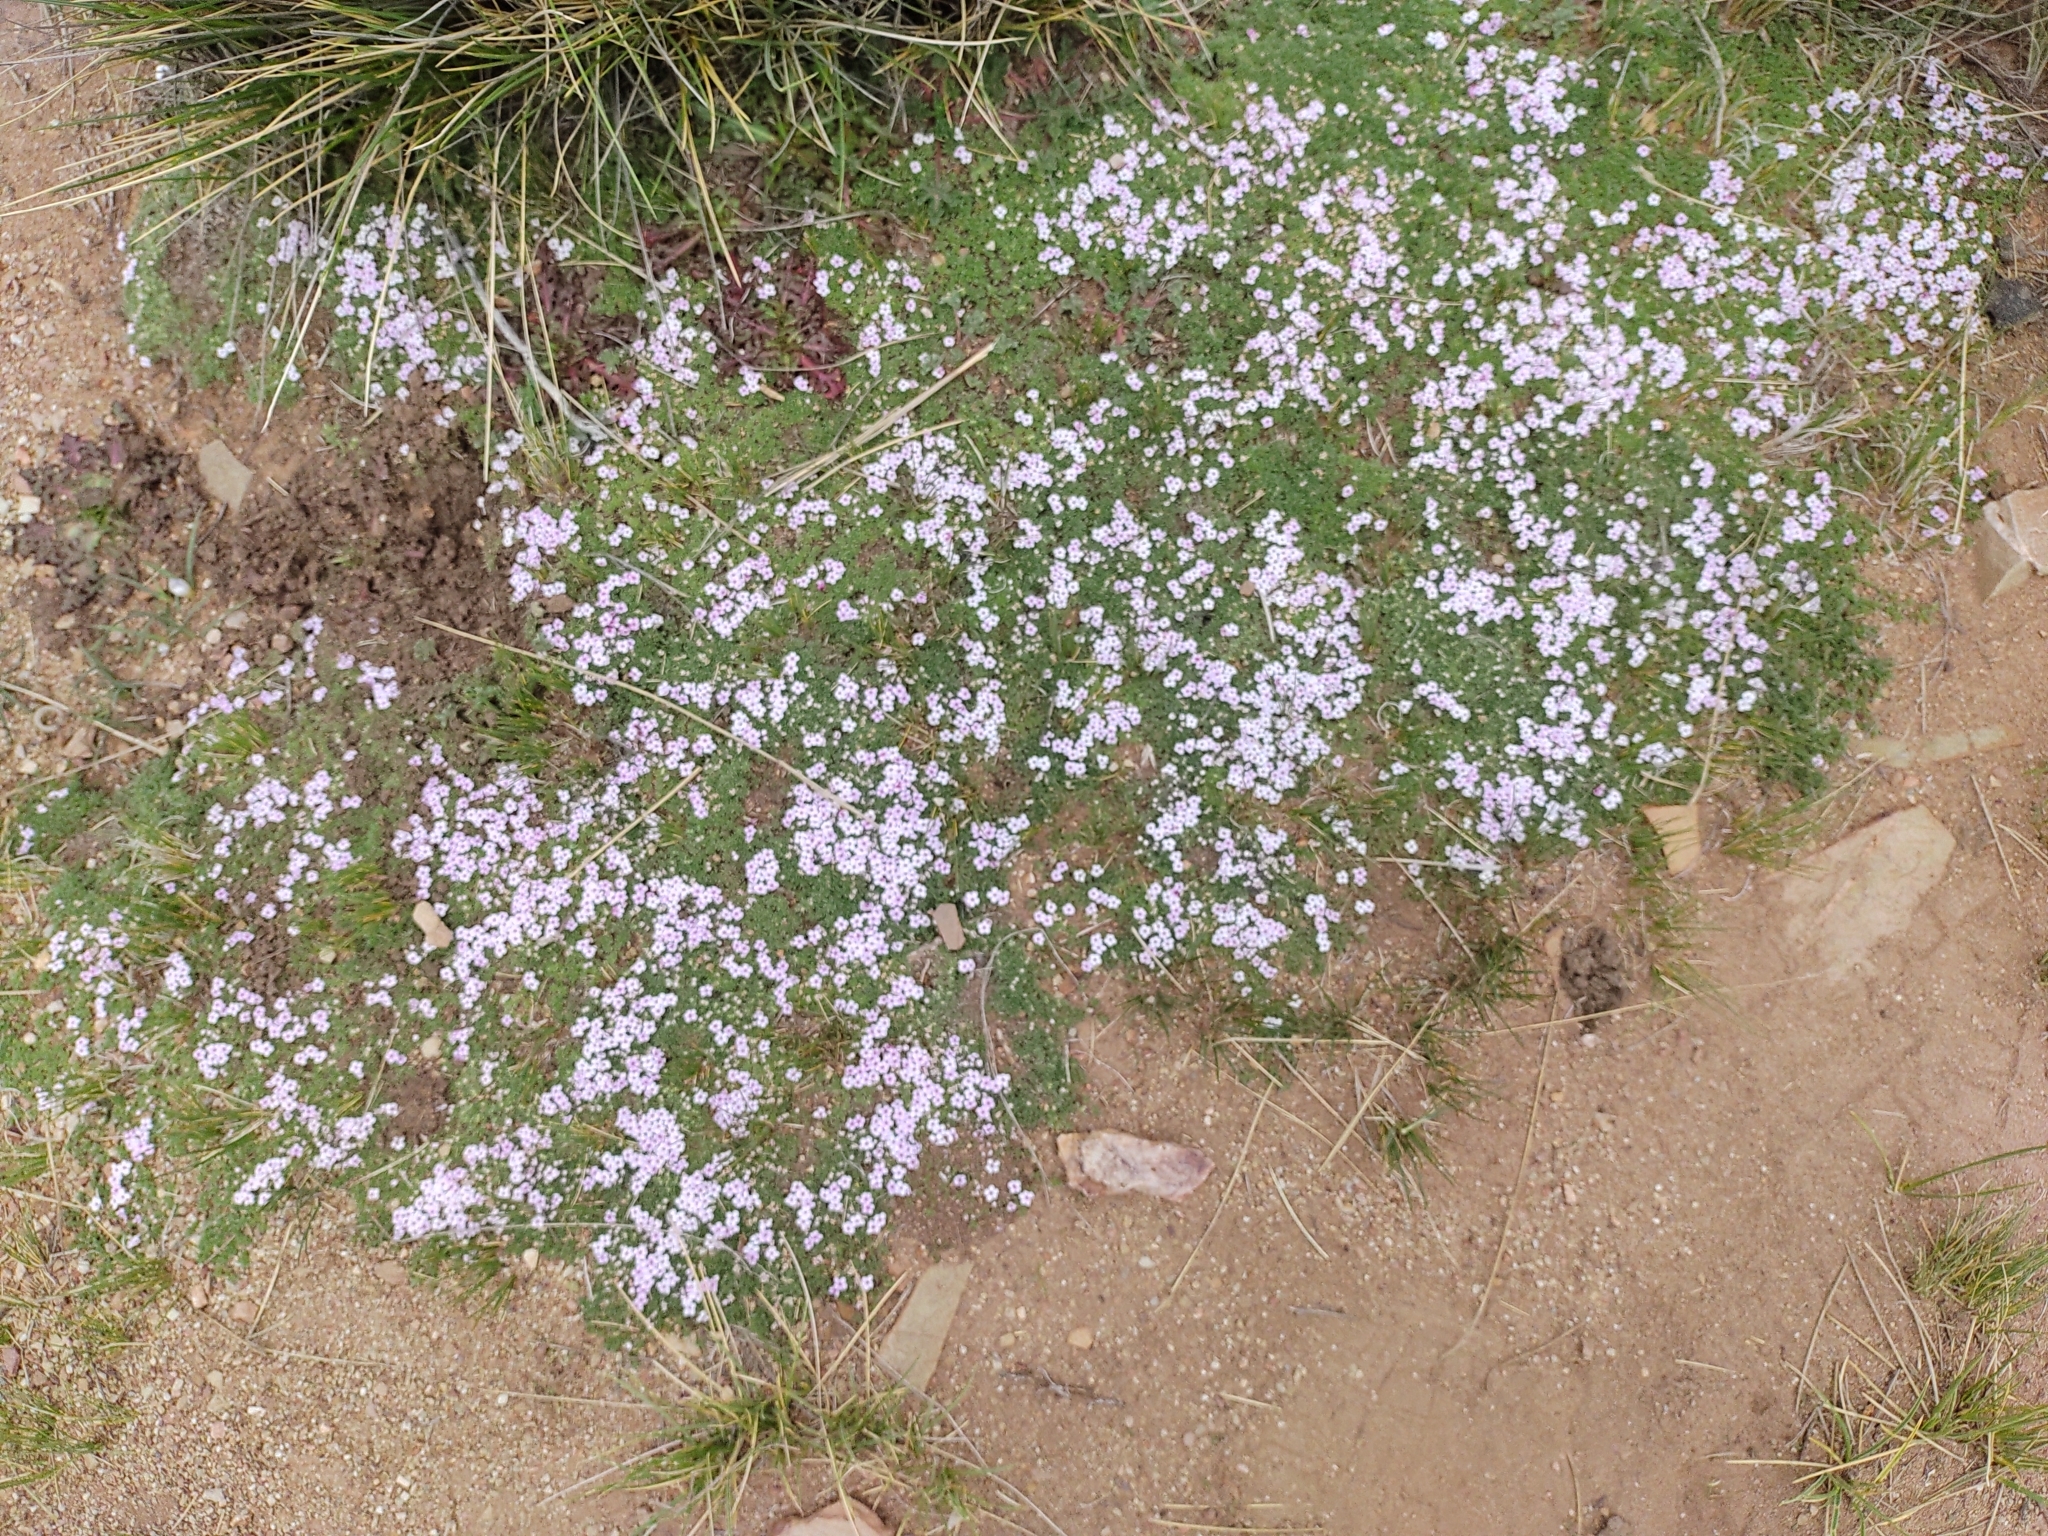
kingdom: Plantae
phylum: Tracheophyta
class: Magnoliopsida
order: Lamiales
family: Verbenaceae
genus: Junellia
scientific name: Junellia minima
